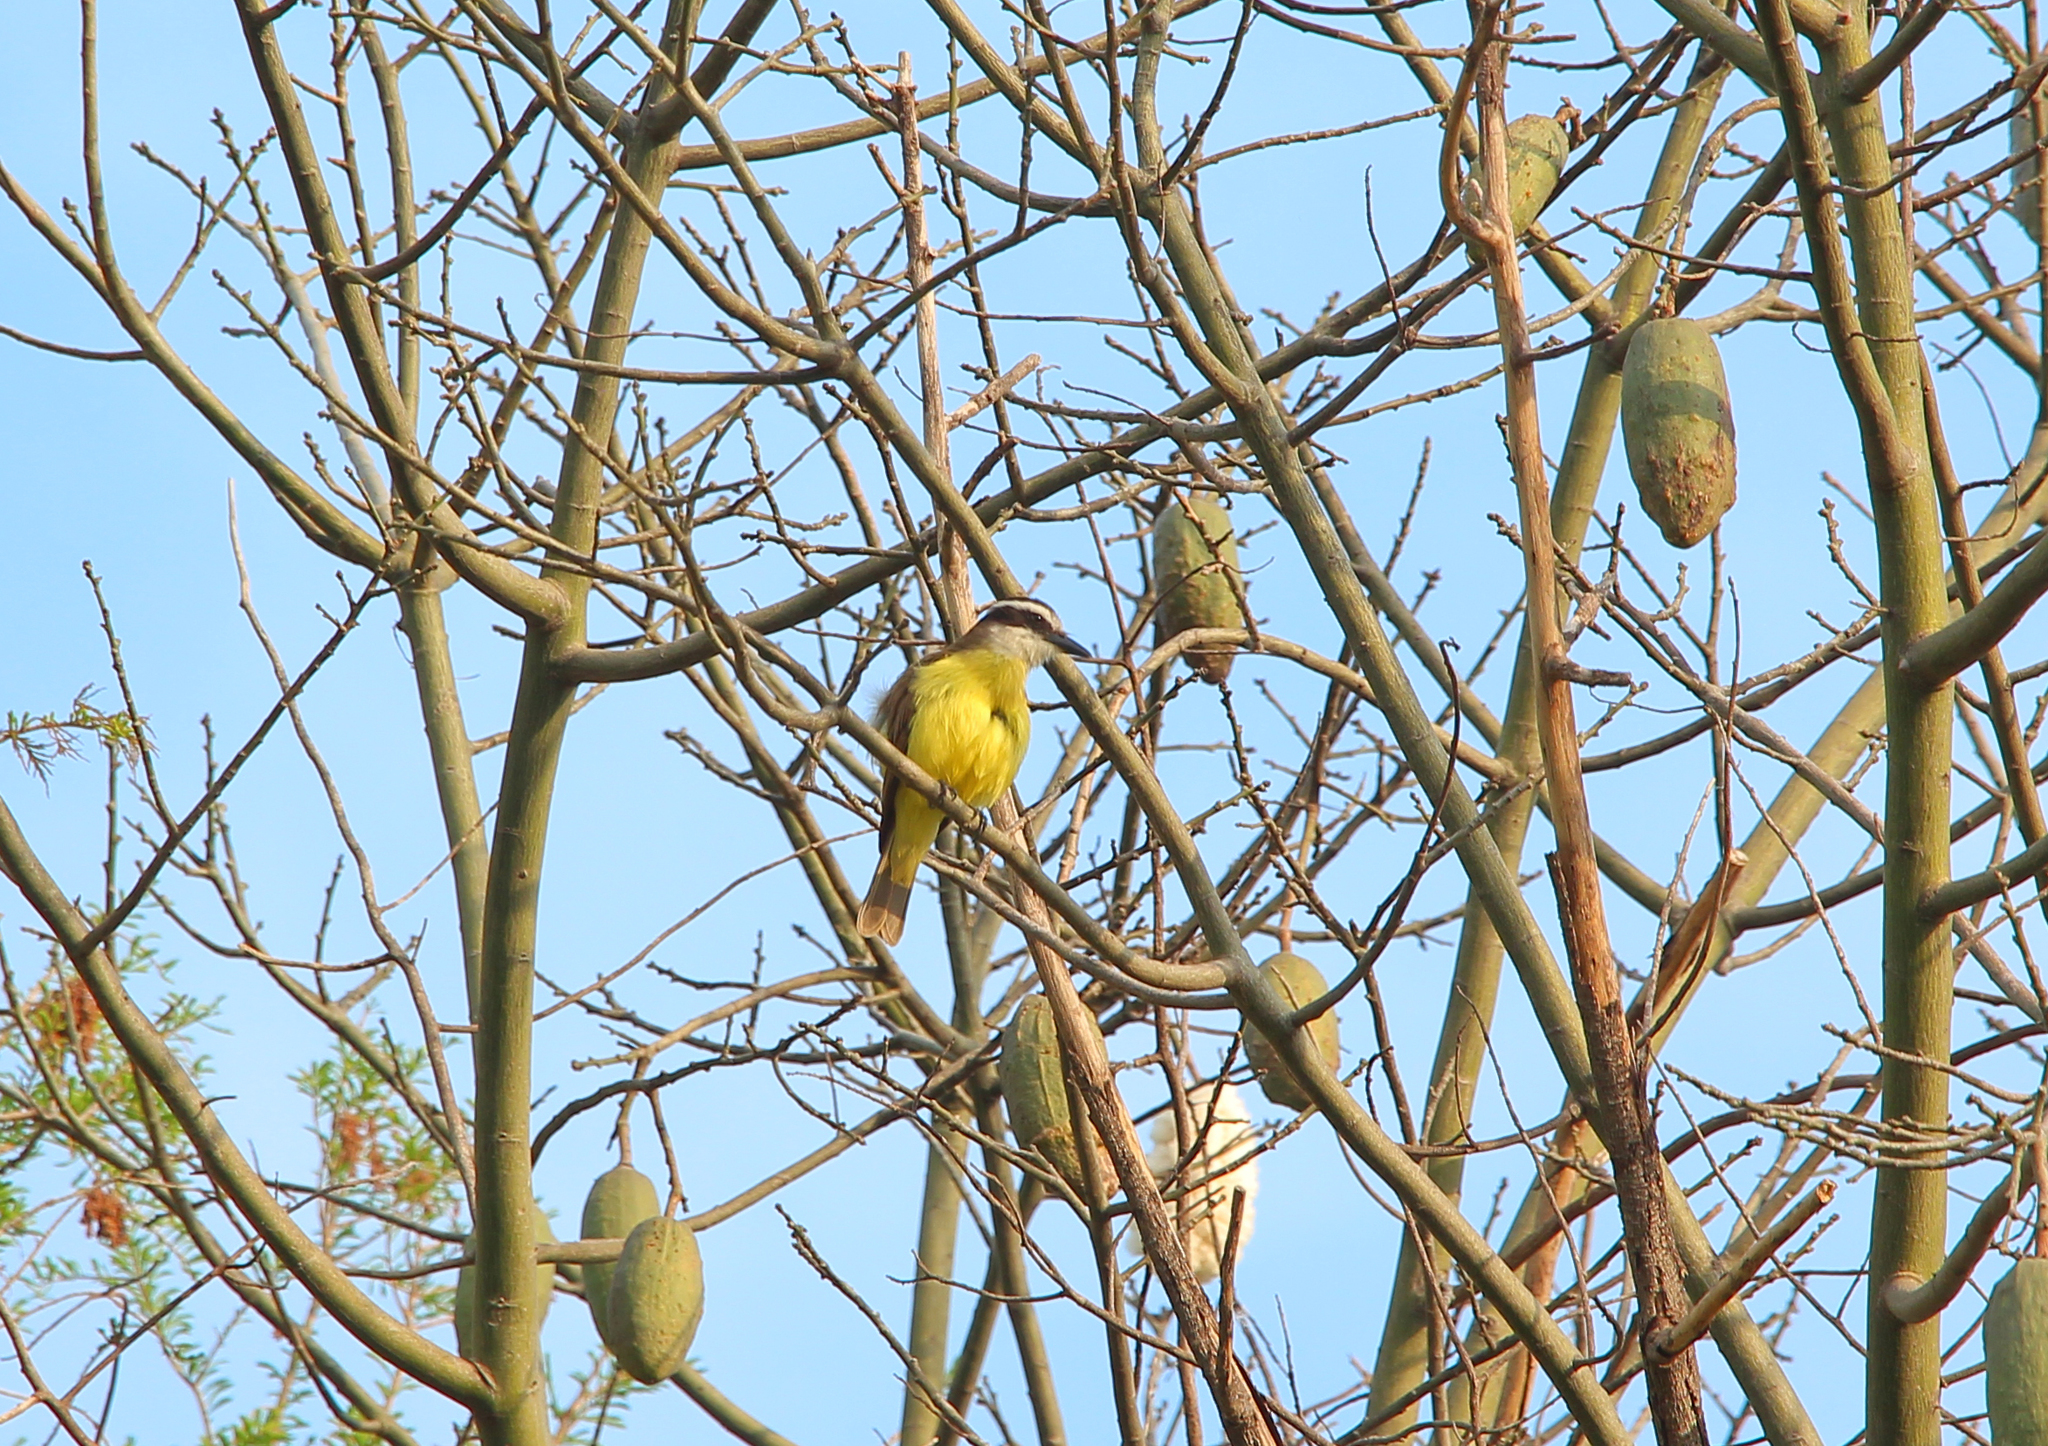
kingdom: Animalia
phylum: Chordata
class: Aves
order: Passeriformes
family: Tyrannidae
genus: Pitangus
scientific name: Pitangus sulphuratus
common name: Great kiskadee
